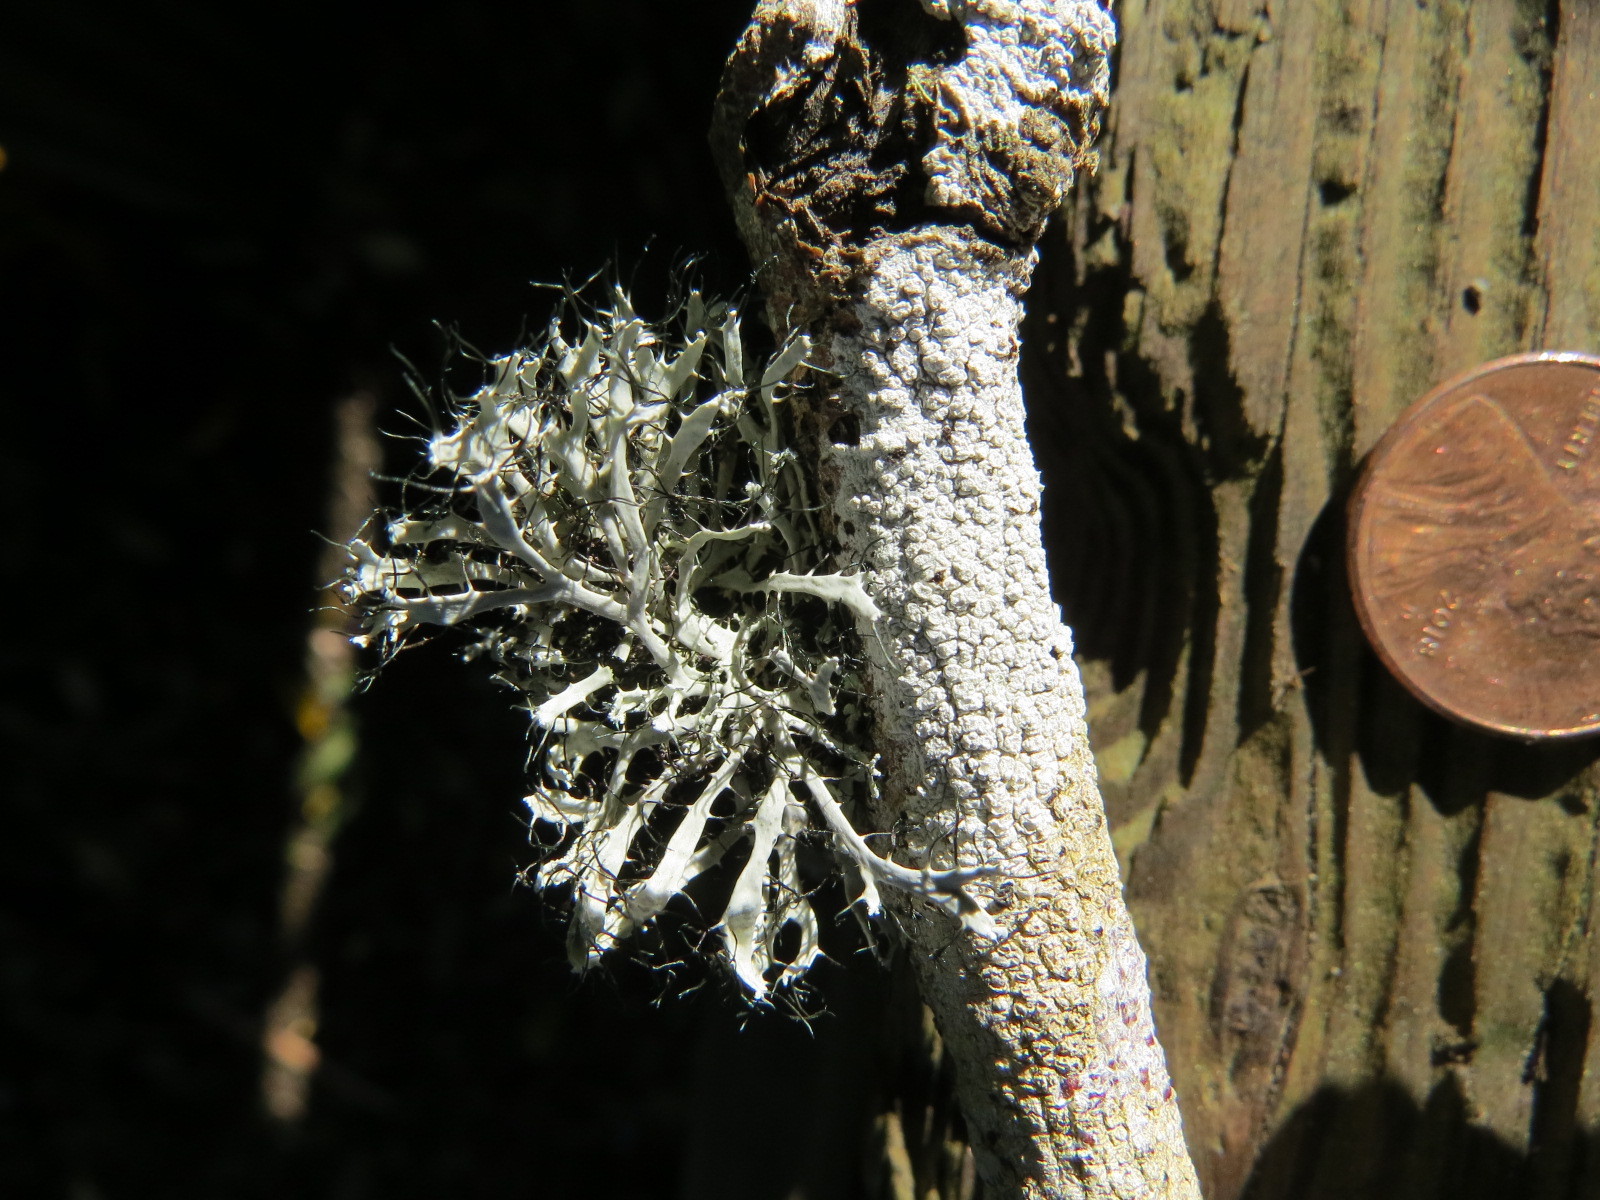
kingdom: Fungi
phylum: Ascomycota
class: Lecanoromycetes
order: Caliciales
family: Physciaceae
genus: Leucodermia
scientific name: Leucodermia leucomelos
